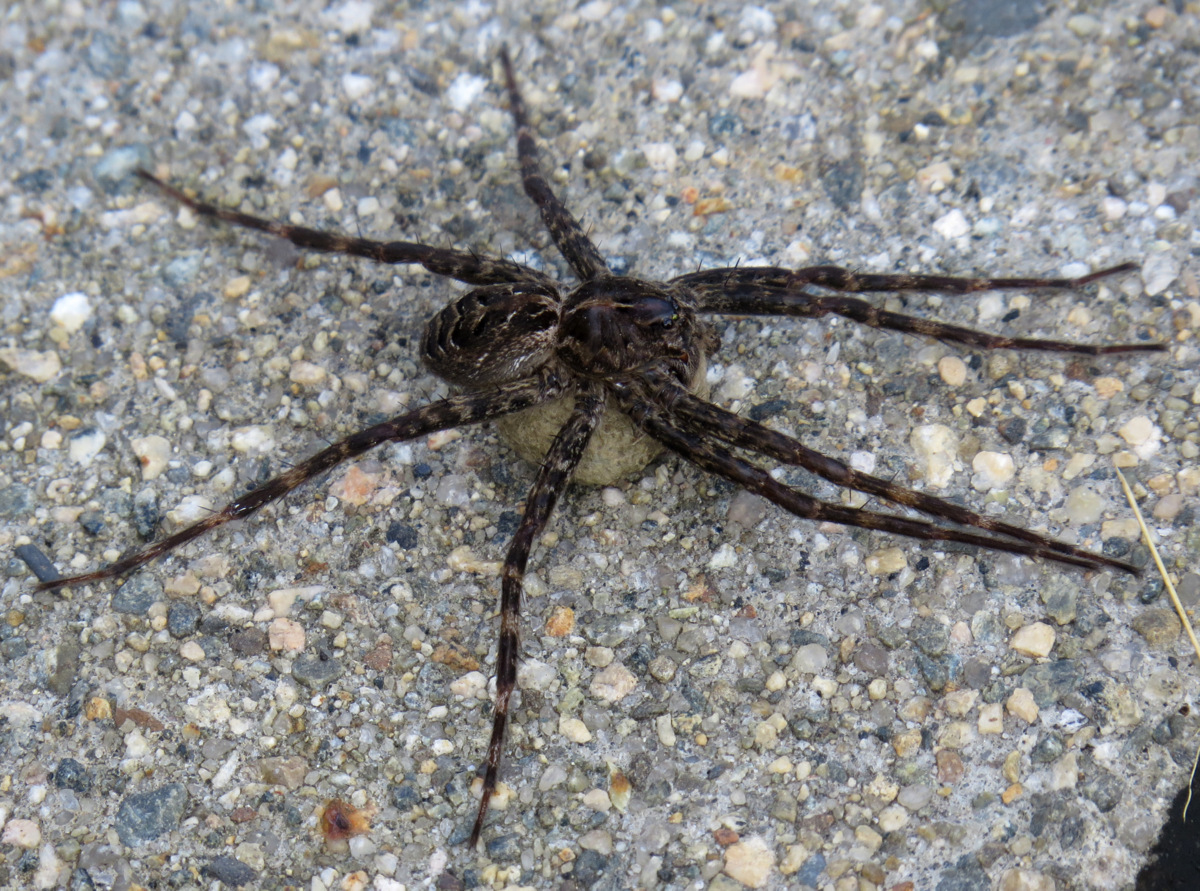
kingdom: Animalia
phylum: Arthropoda
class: Arachnida
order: Araneae
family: Pisauridae
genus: Dolomedes
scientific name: Dolomedes scriptus
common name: Striped fishing spider
